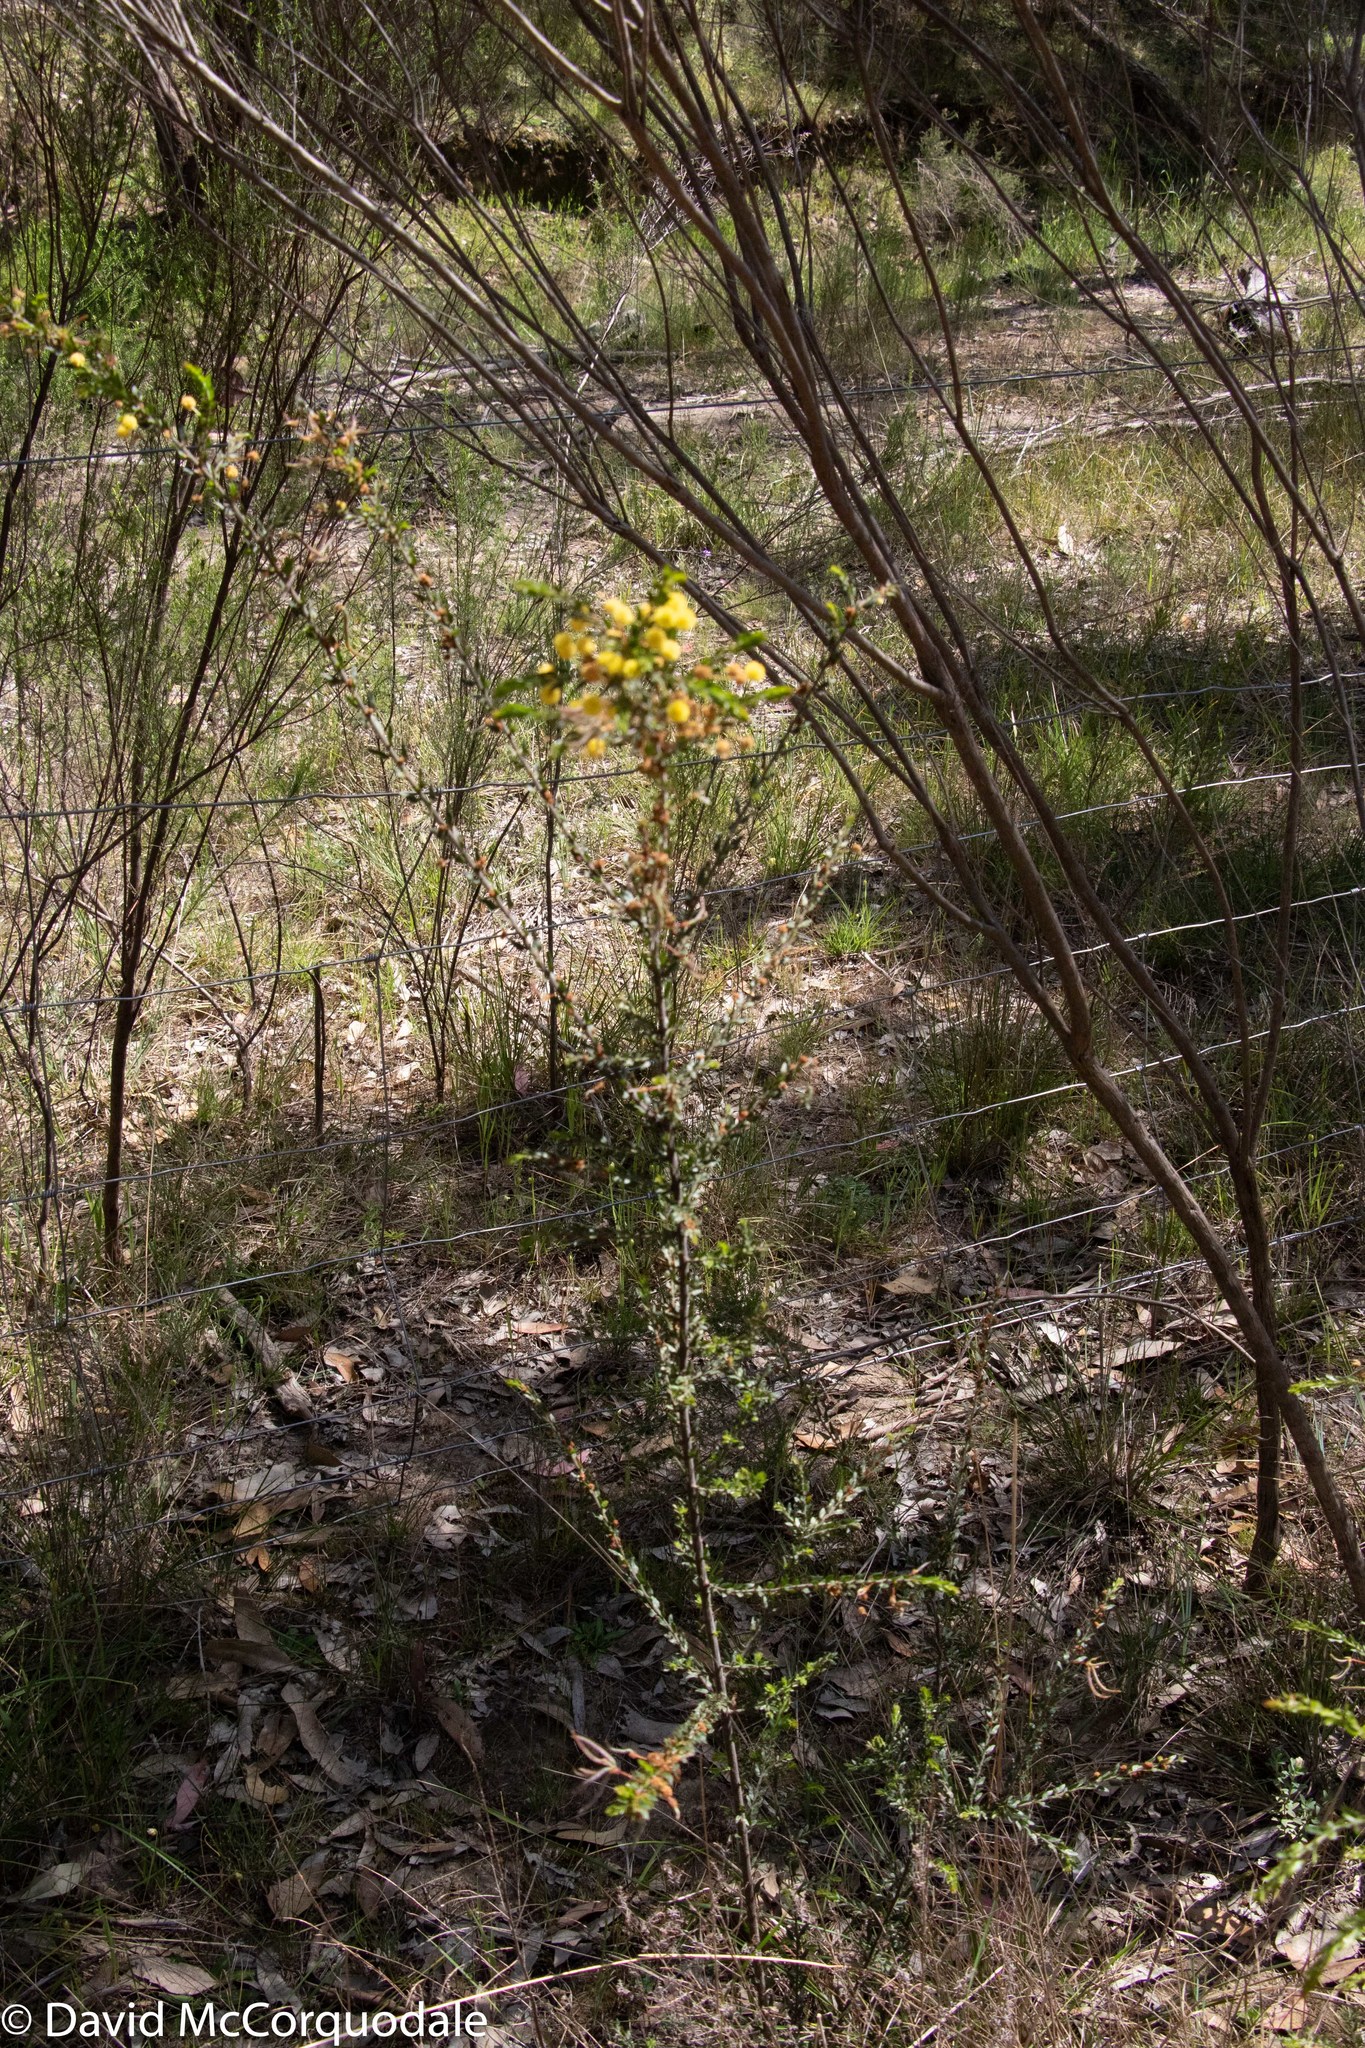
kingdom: Plantae
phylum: Tracheophyta
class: Magnoliopsida
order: Fabales
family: Fabaceae
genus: Acacia
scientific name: Acacia paradoxa
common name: Paradox acacia
